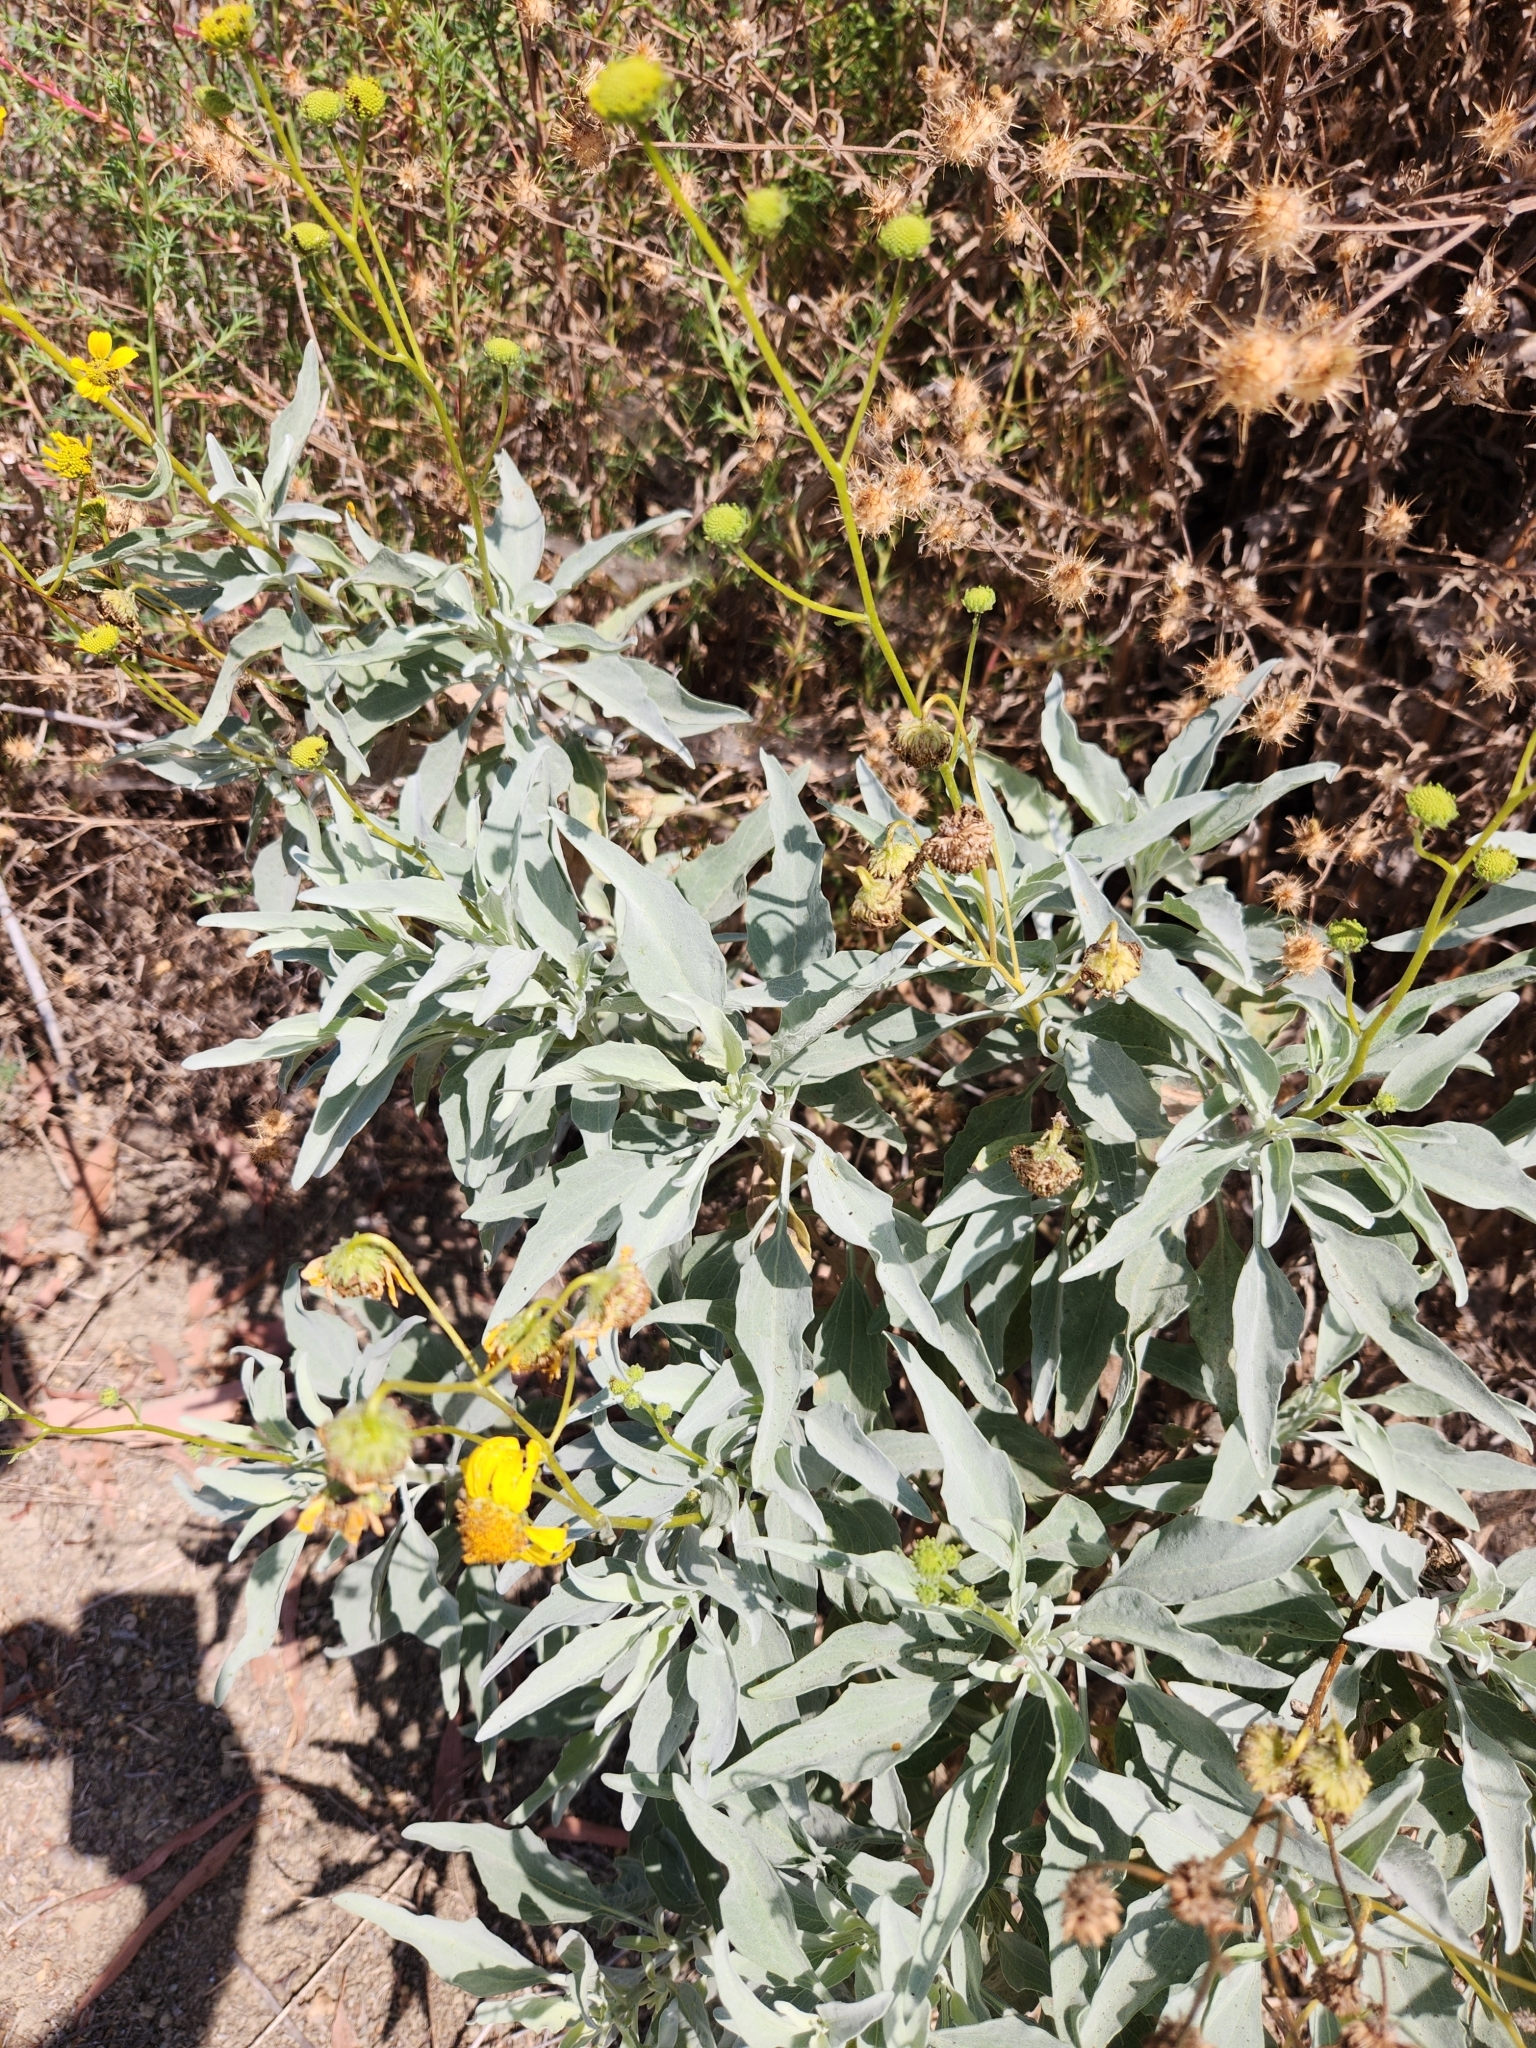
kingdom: Plantae
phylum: Tracheophyta
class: Magnoliopsida
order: Asterales
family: Asteraceae
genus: Encelia
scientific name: Encelia farinosa
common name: Brittlebush
